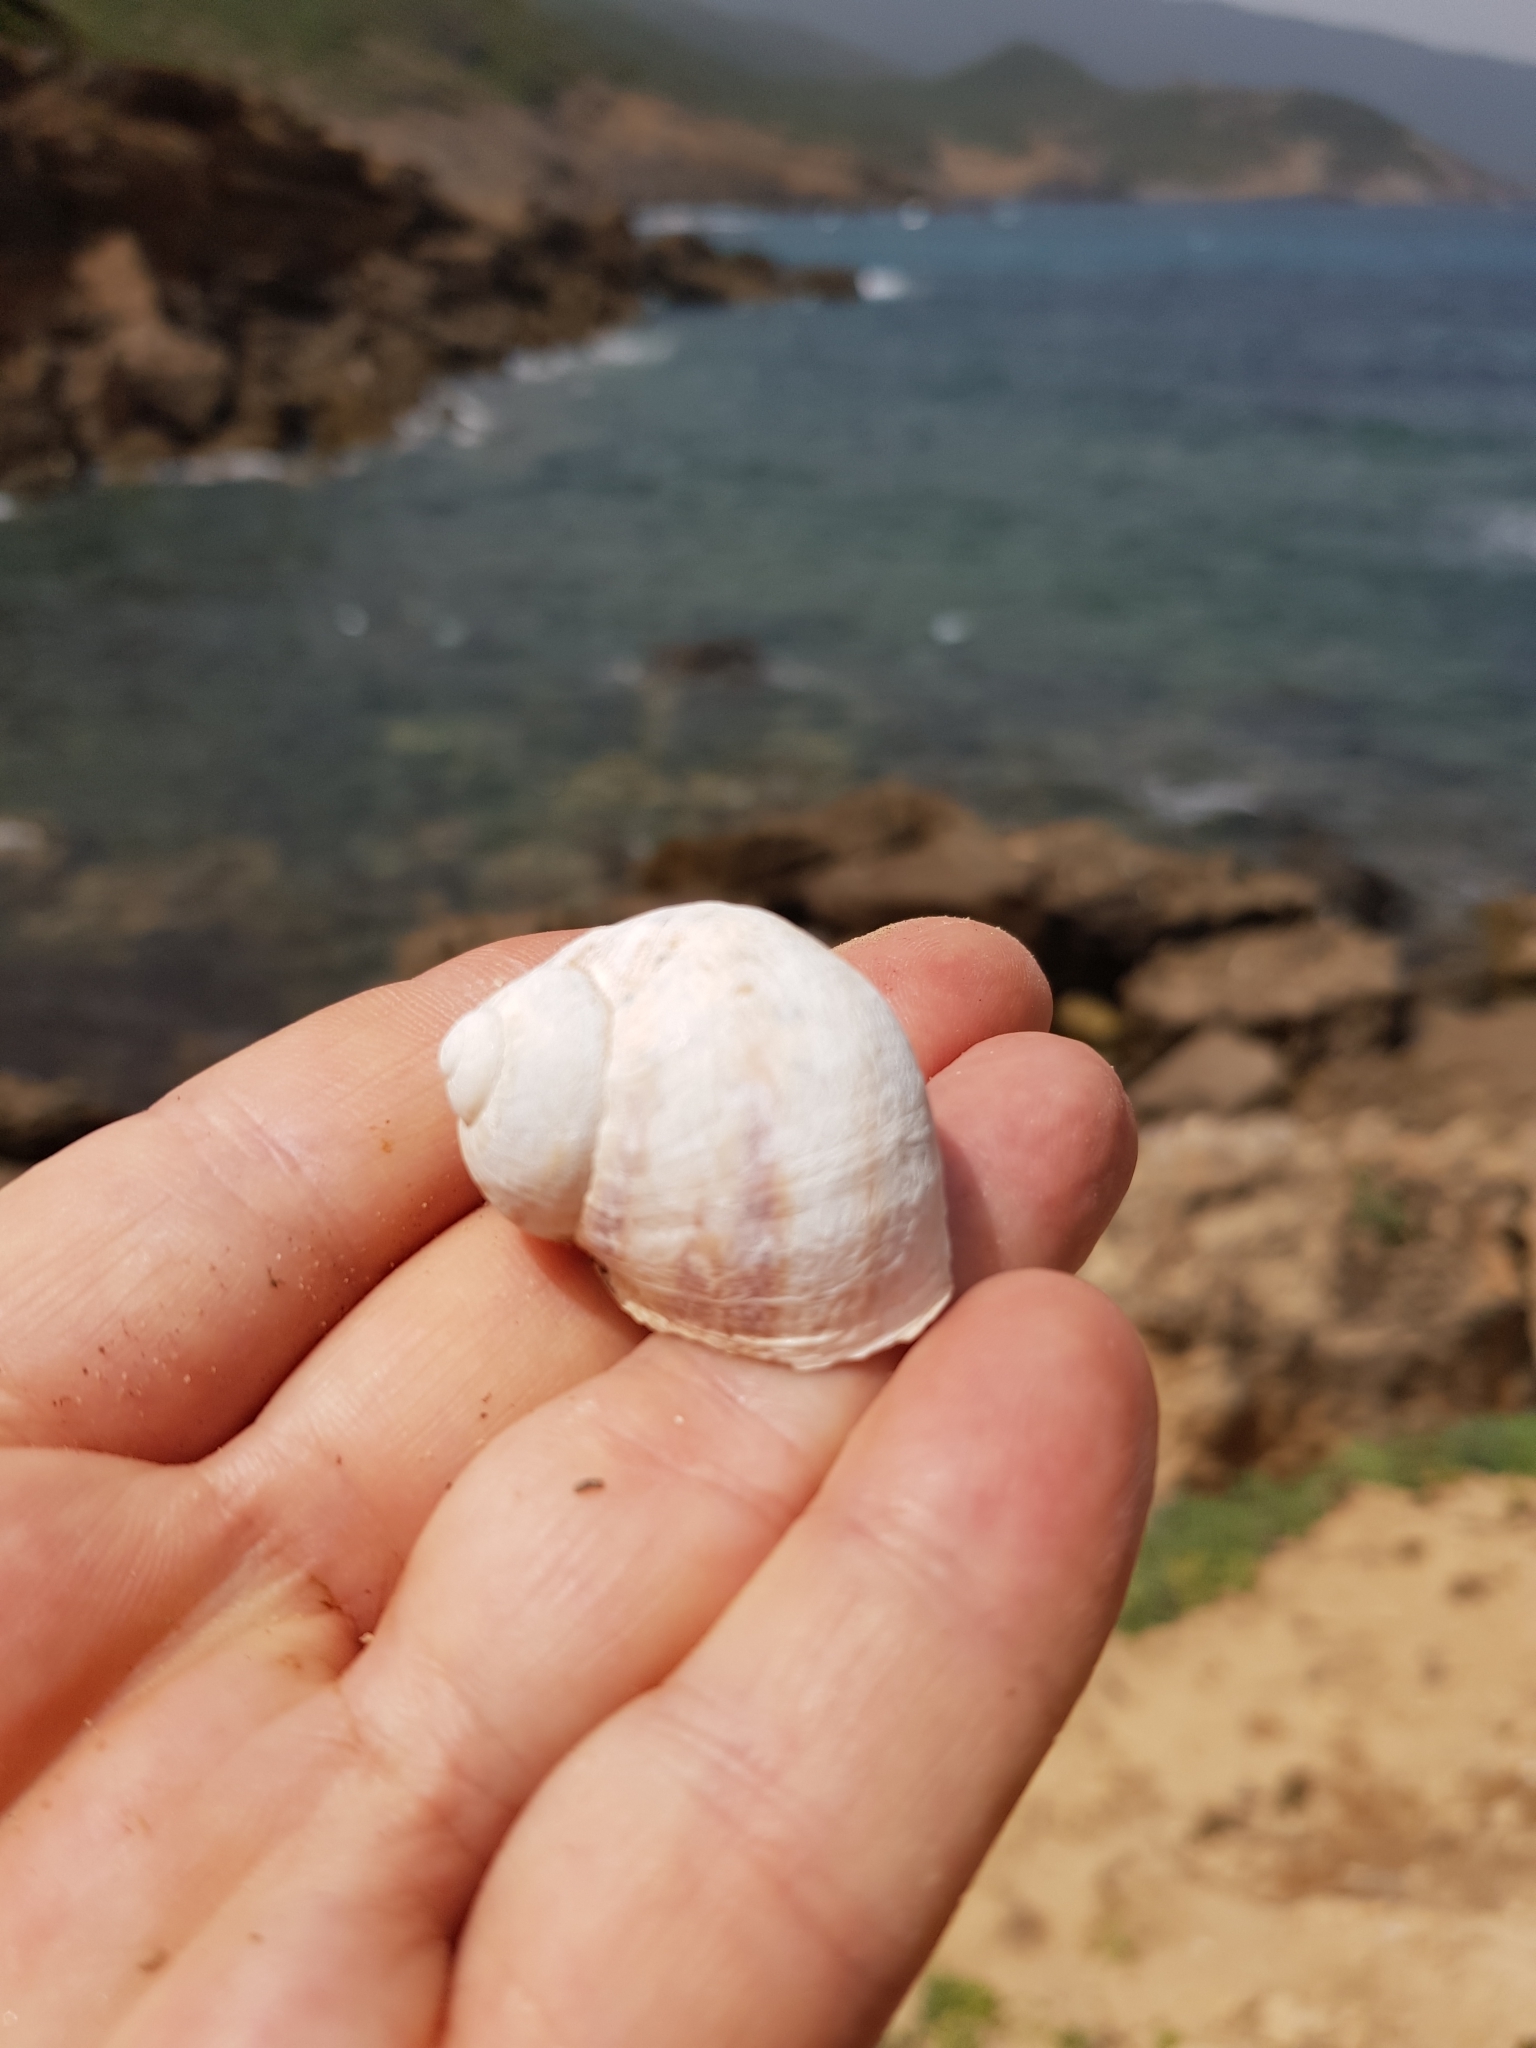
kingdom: Animalia
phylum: Mollusca
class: Gastropoda
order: Stylommatophora
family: Helicidae
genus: Cornu
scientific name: Cornu aspersum
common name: Brown garden snail
